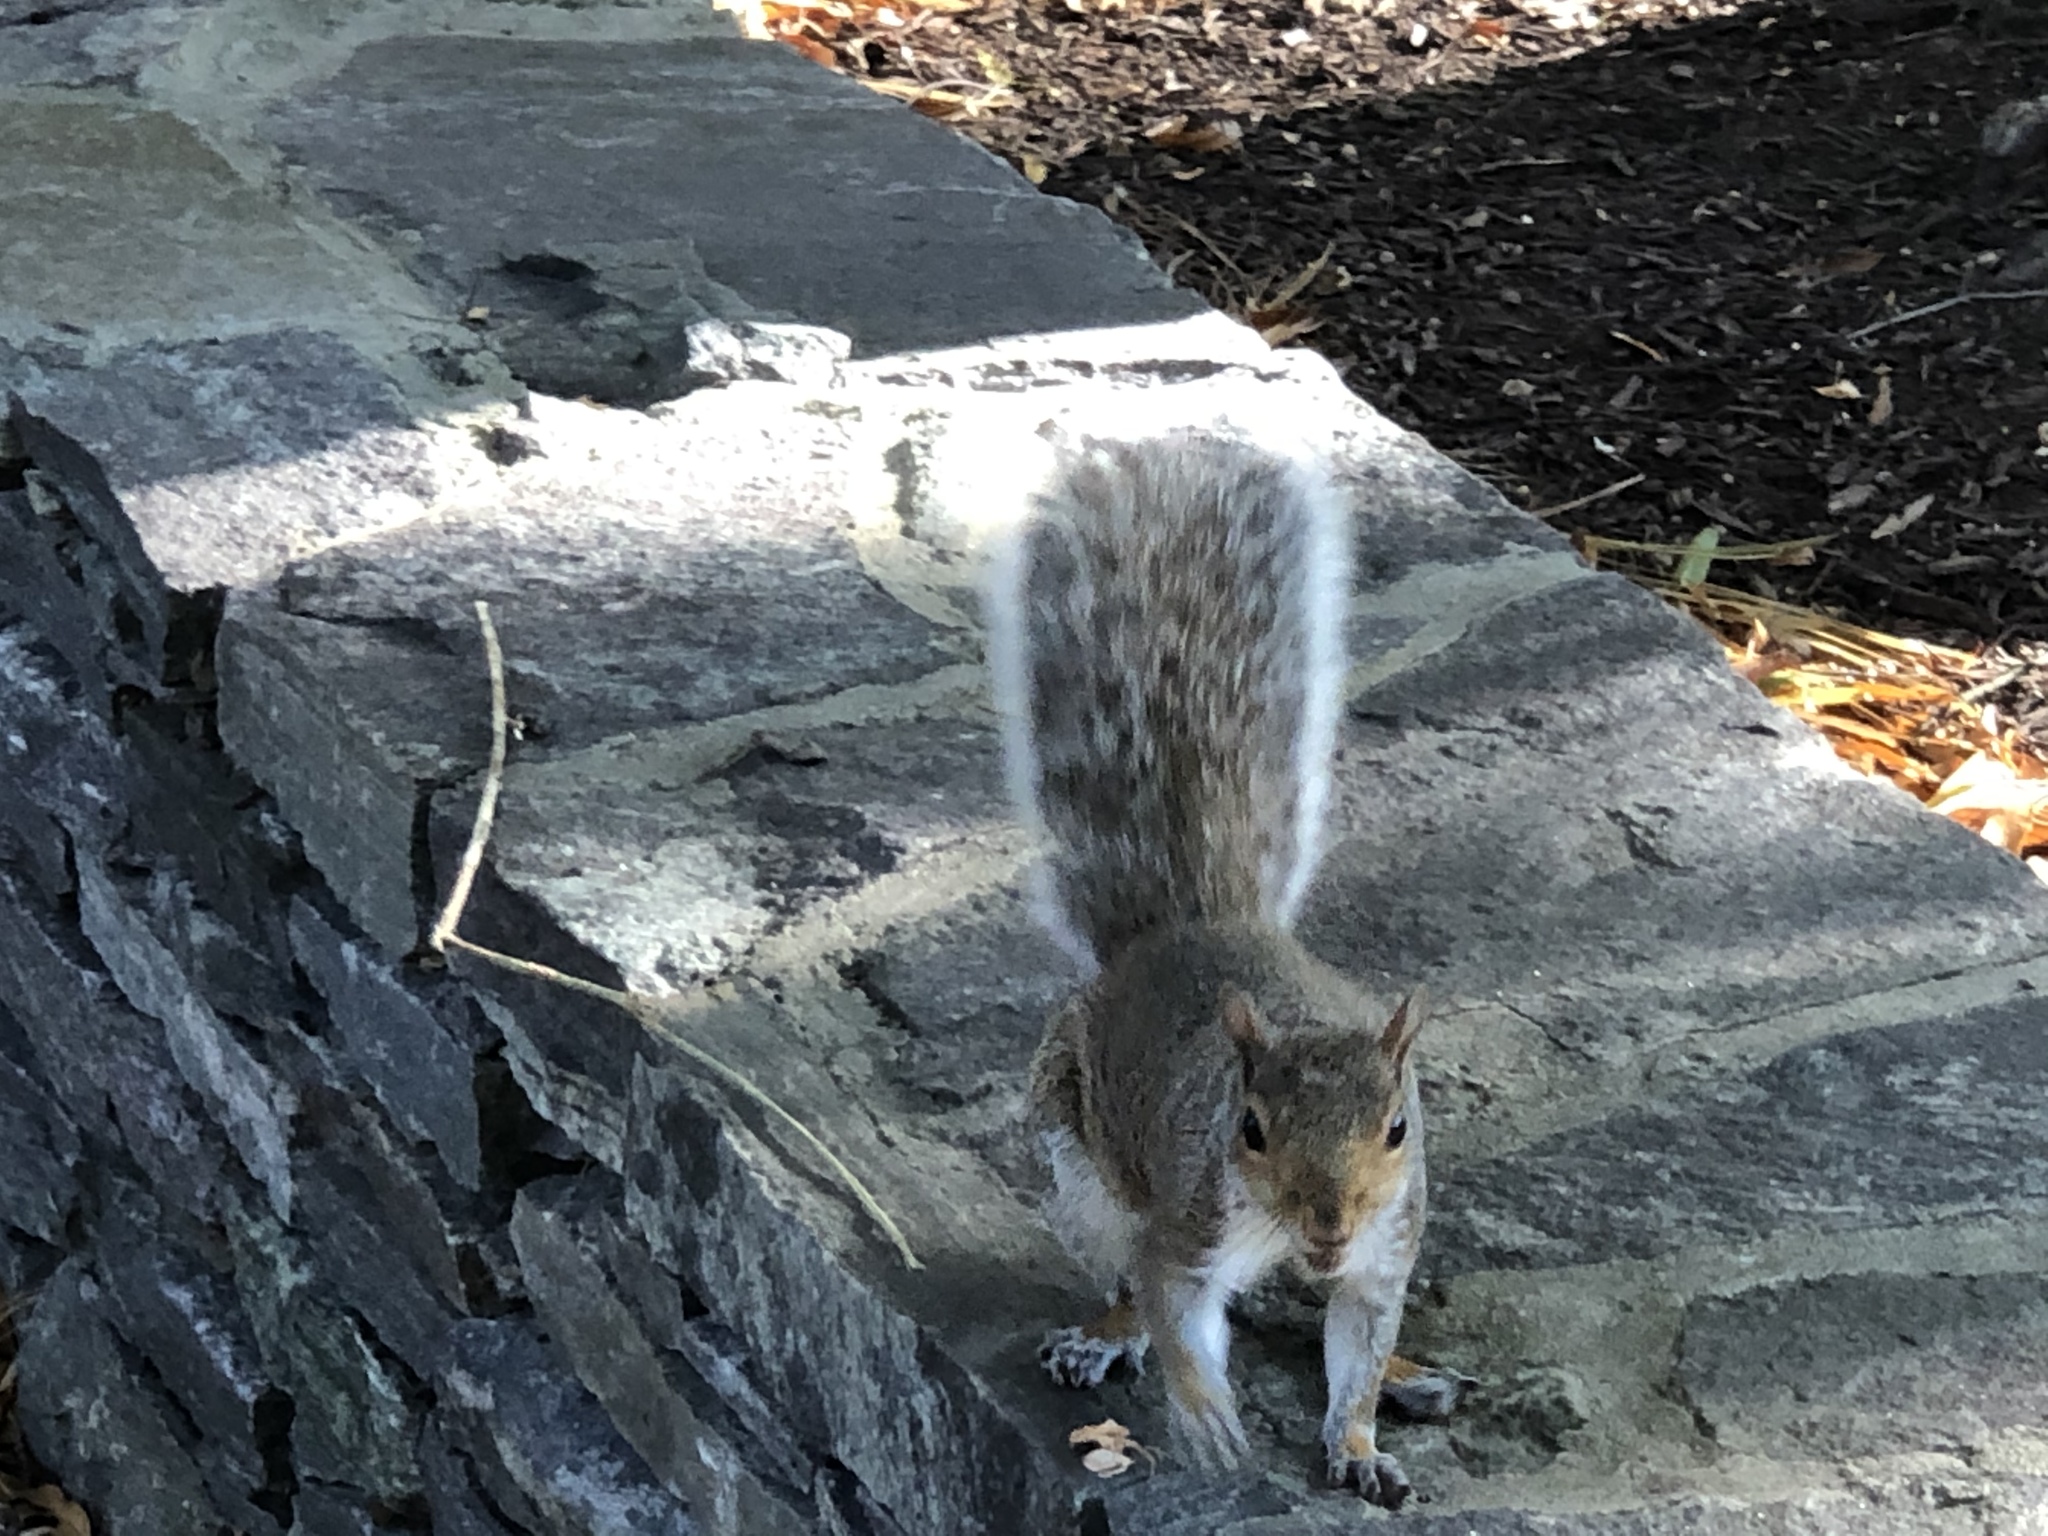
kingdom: Animalia
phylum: Chordata
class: Mammalia
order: Rodentia
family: Sciuridae
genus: Sciurus
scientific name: Sciurus carolinensis
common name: Eastern gray squirrel
